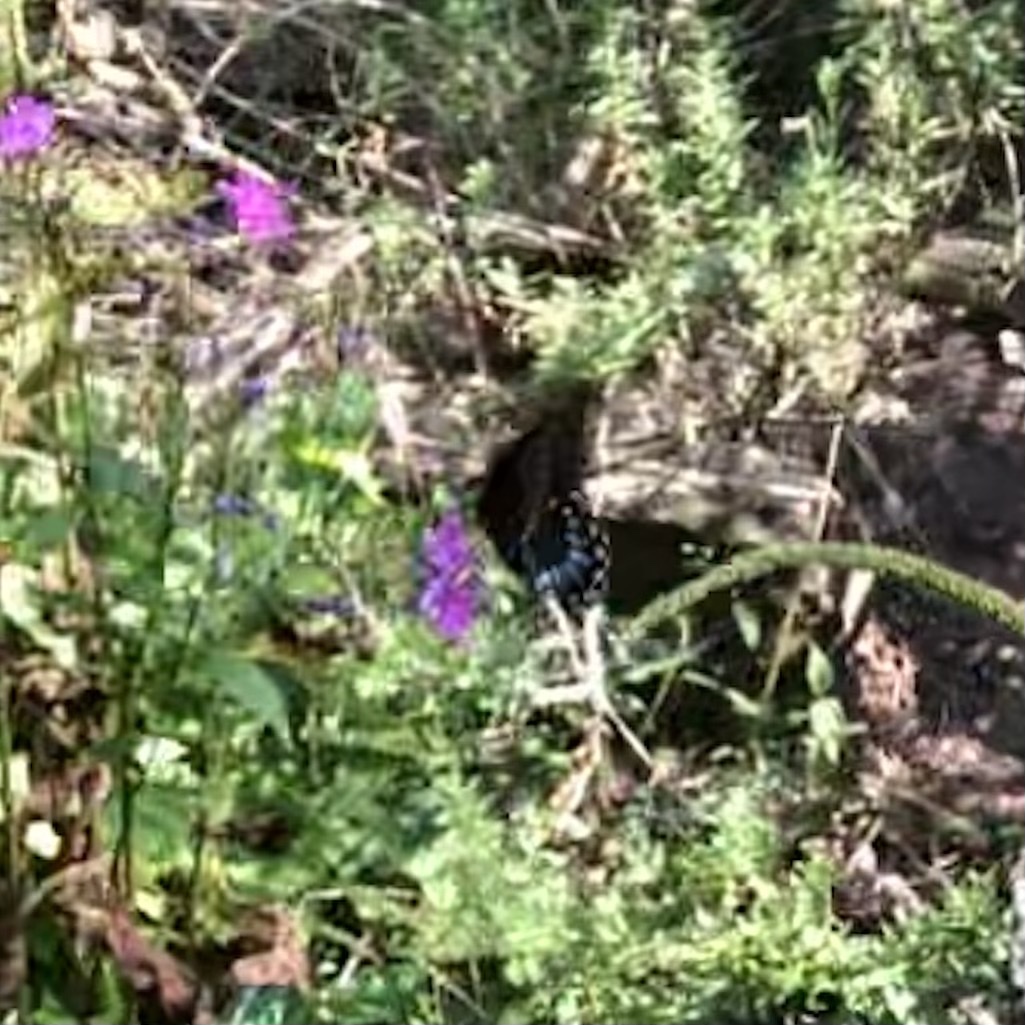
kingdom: Animalia
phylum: Arthropoda
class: Insecta
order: Lepidoptera
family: Papilionidae
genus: Papilio
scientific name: Papilio glaucus
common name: Tiger swallowtail
